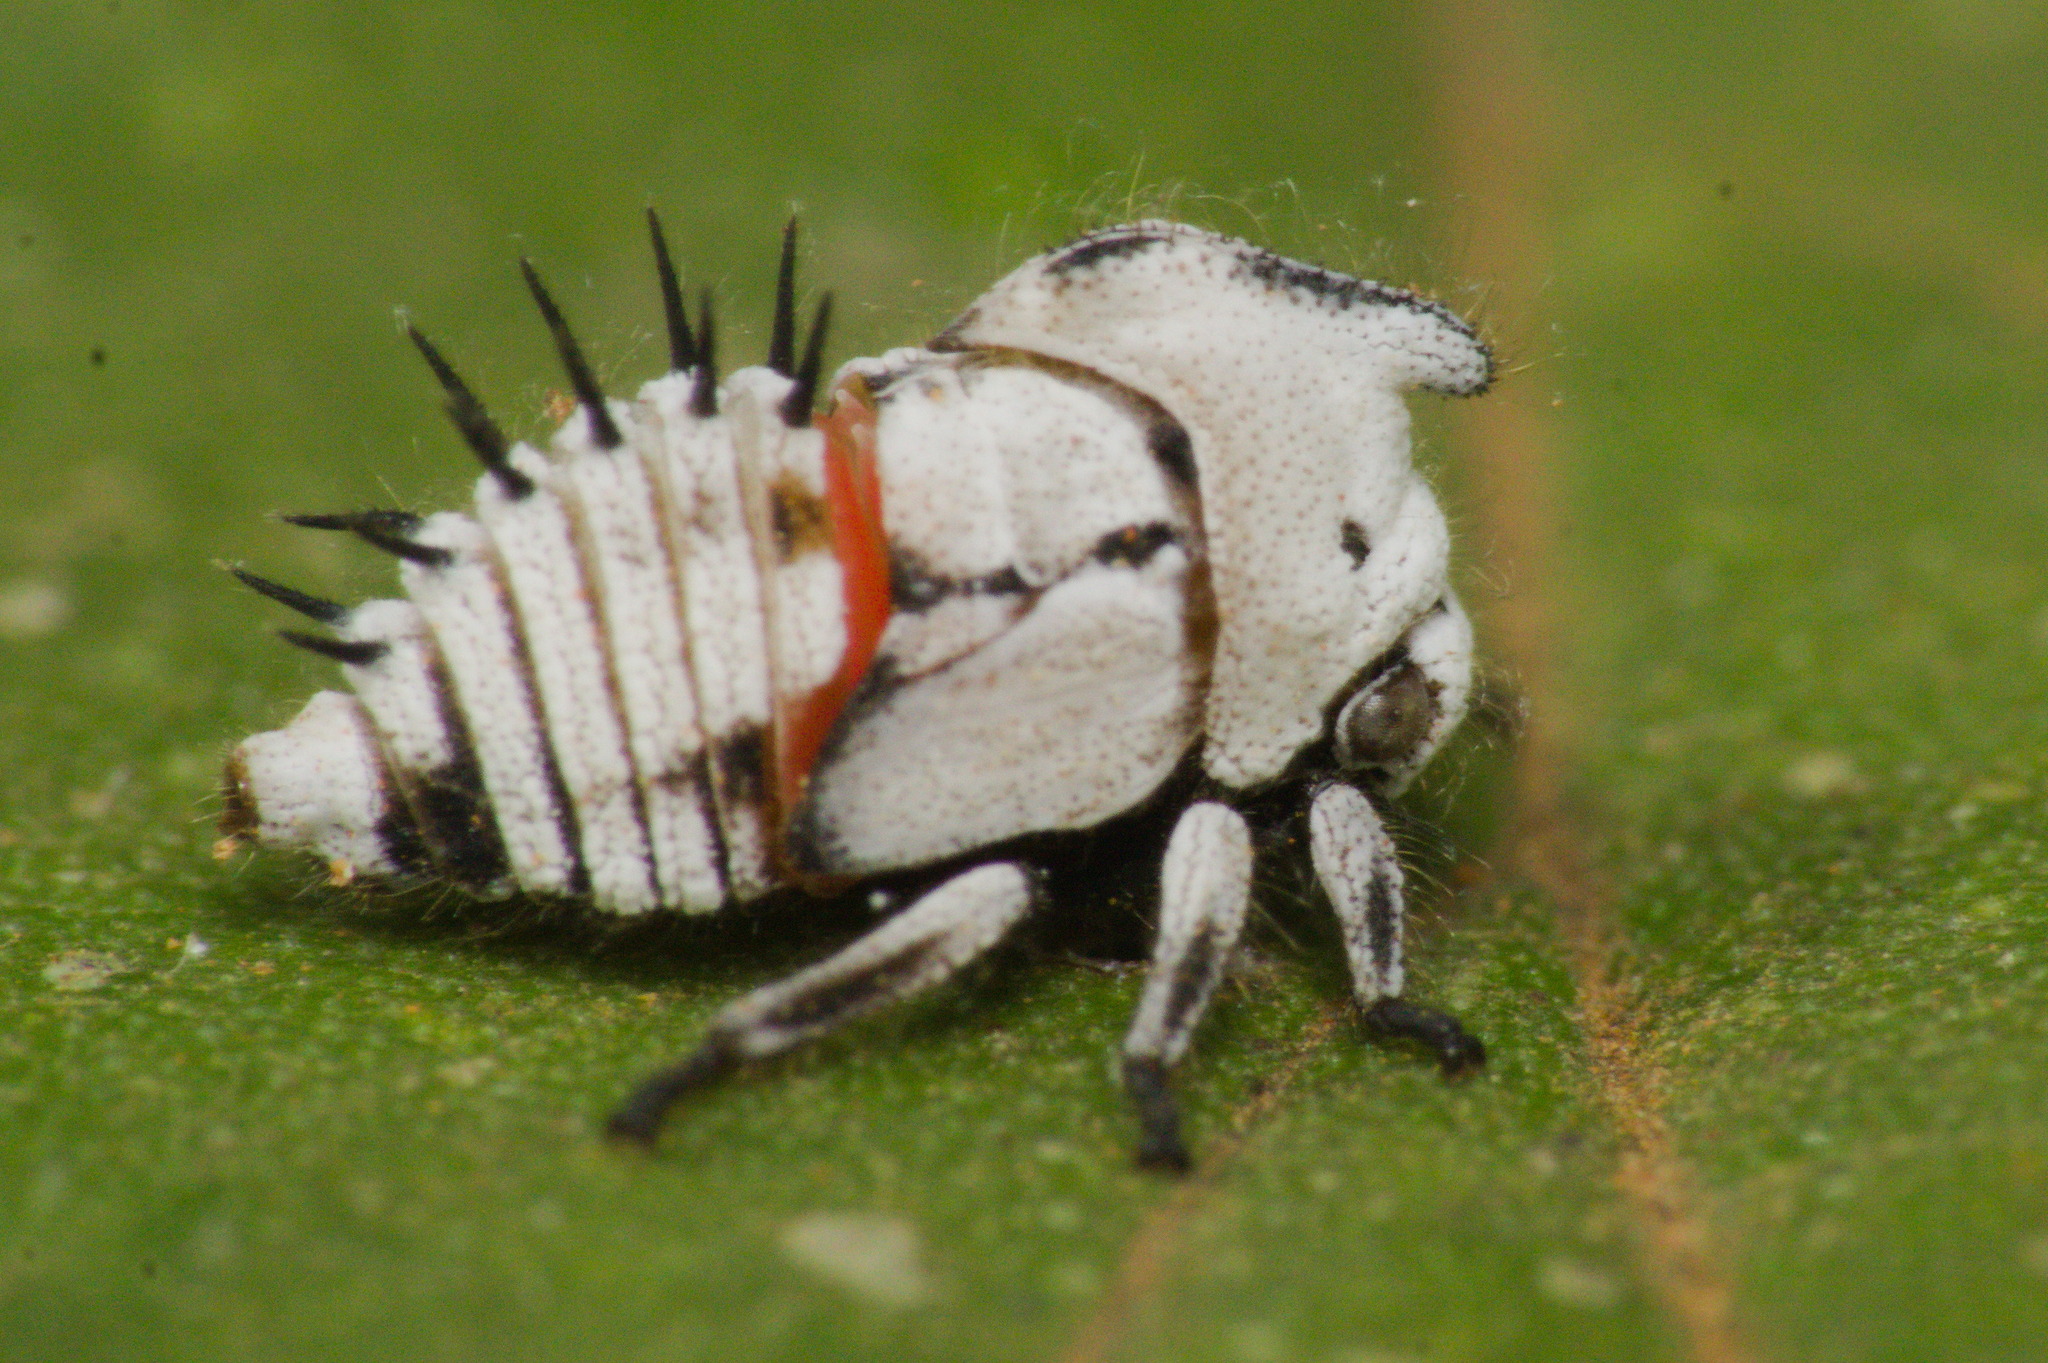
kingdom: Animalia
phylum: Arthropoda
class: Insecta
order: Hemiptera
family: Membracidae
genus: Enchophyllum
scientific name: Enchophyllum quinquemaculata
